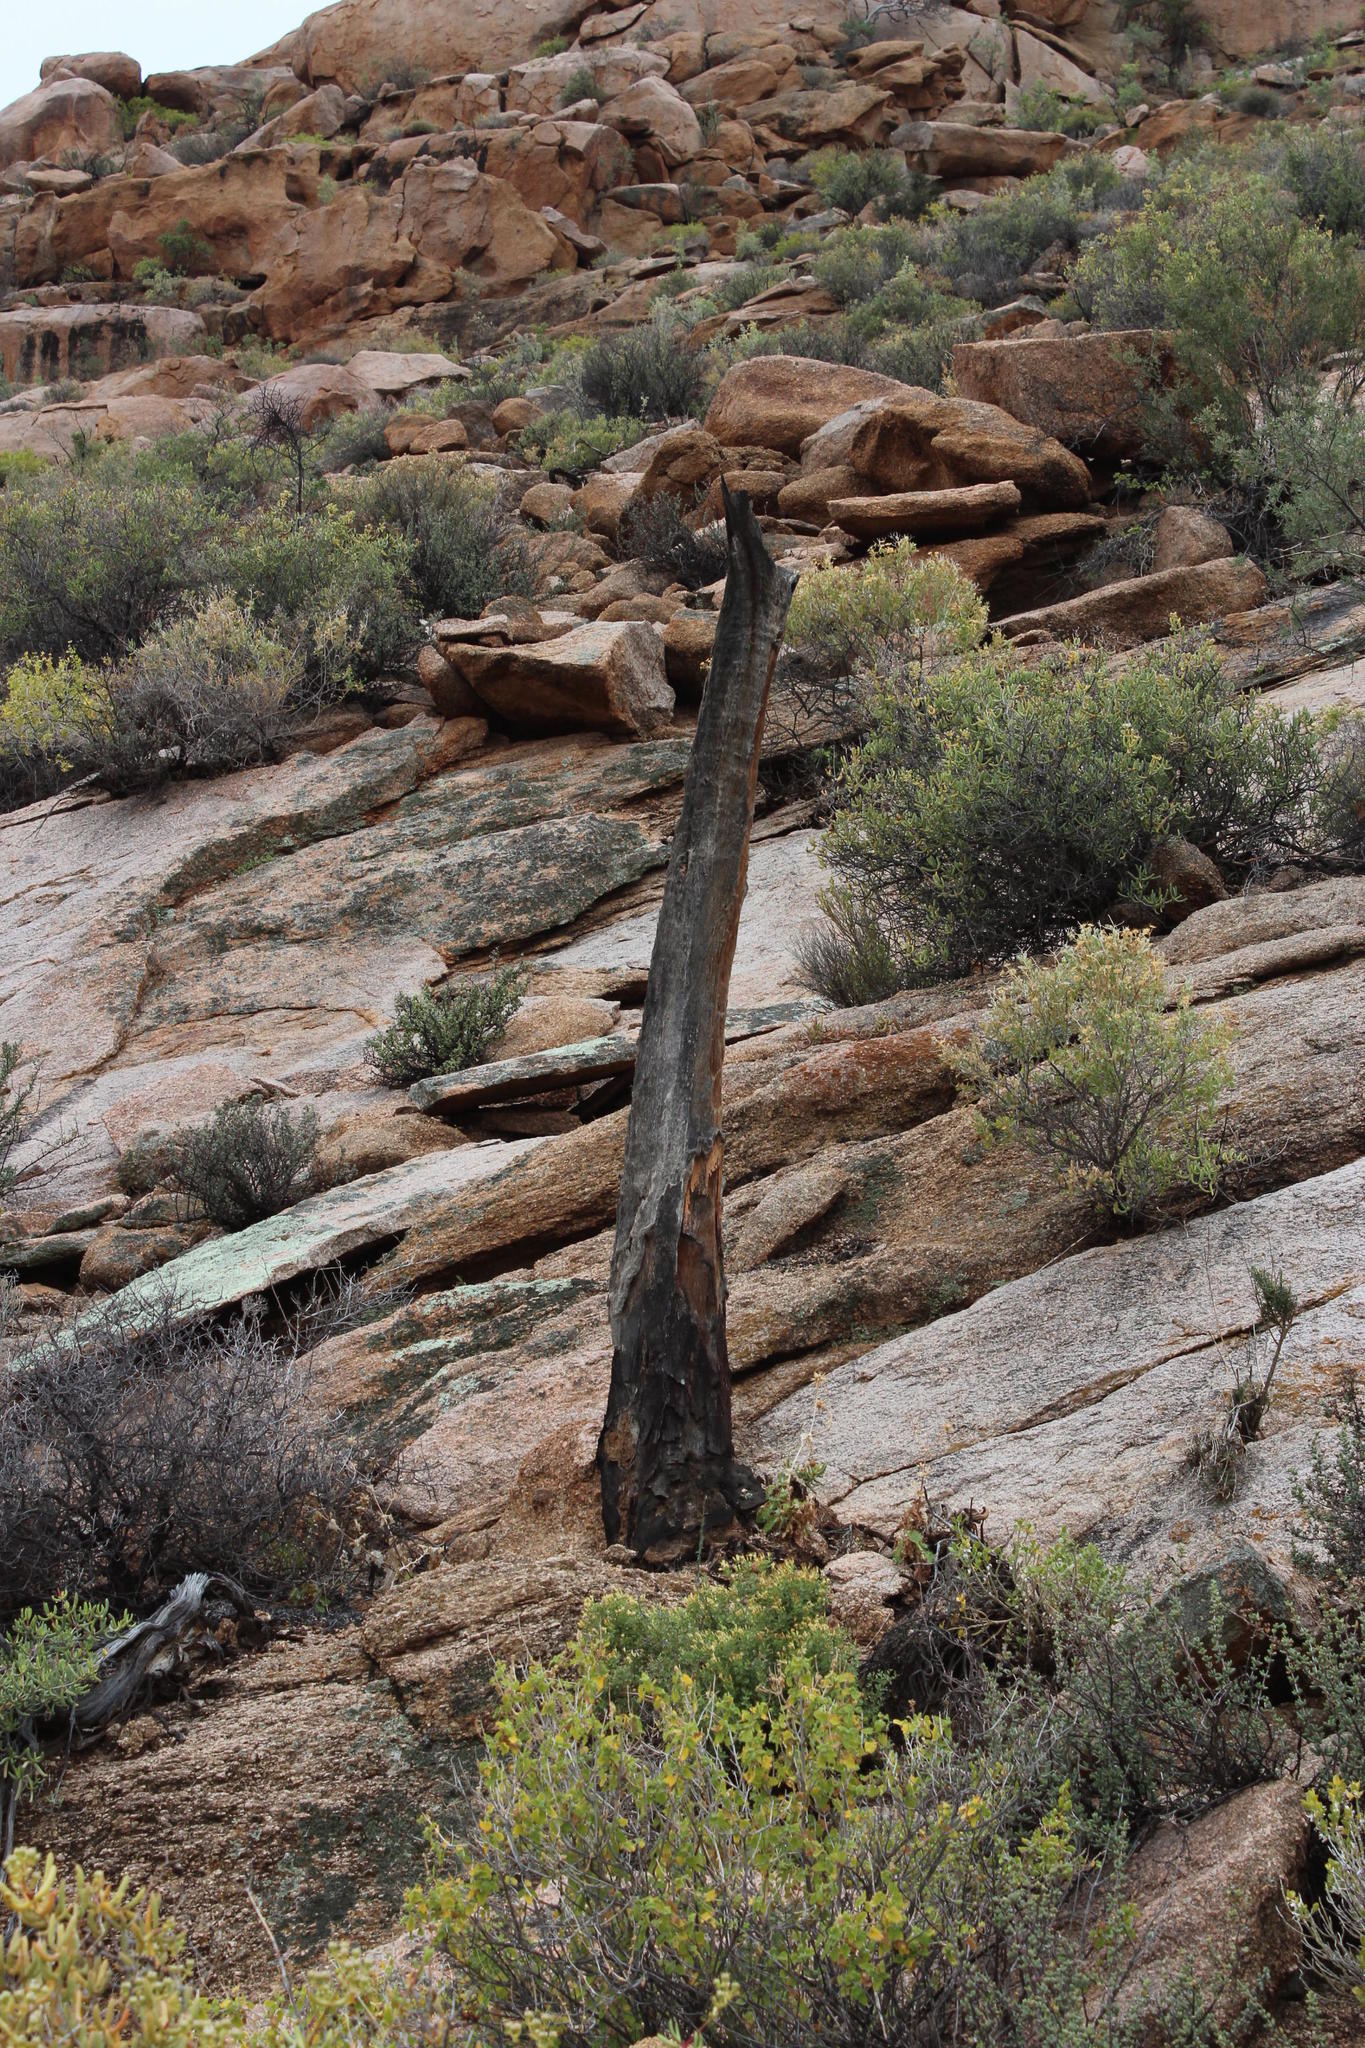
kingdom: Plantae
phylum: Tracheophyta
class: Liliopsida
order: Asparagales
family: Asphodelaceae
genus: Aloidendron
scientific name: Aloidendron dichotomum
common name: Quiver tree
